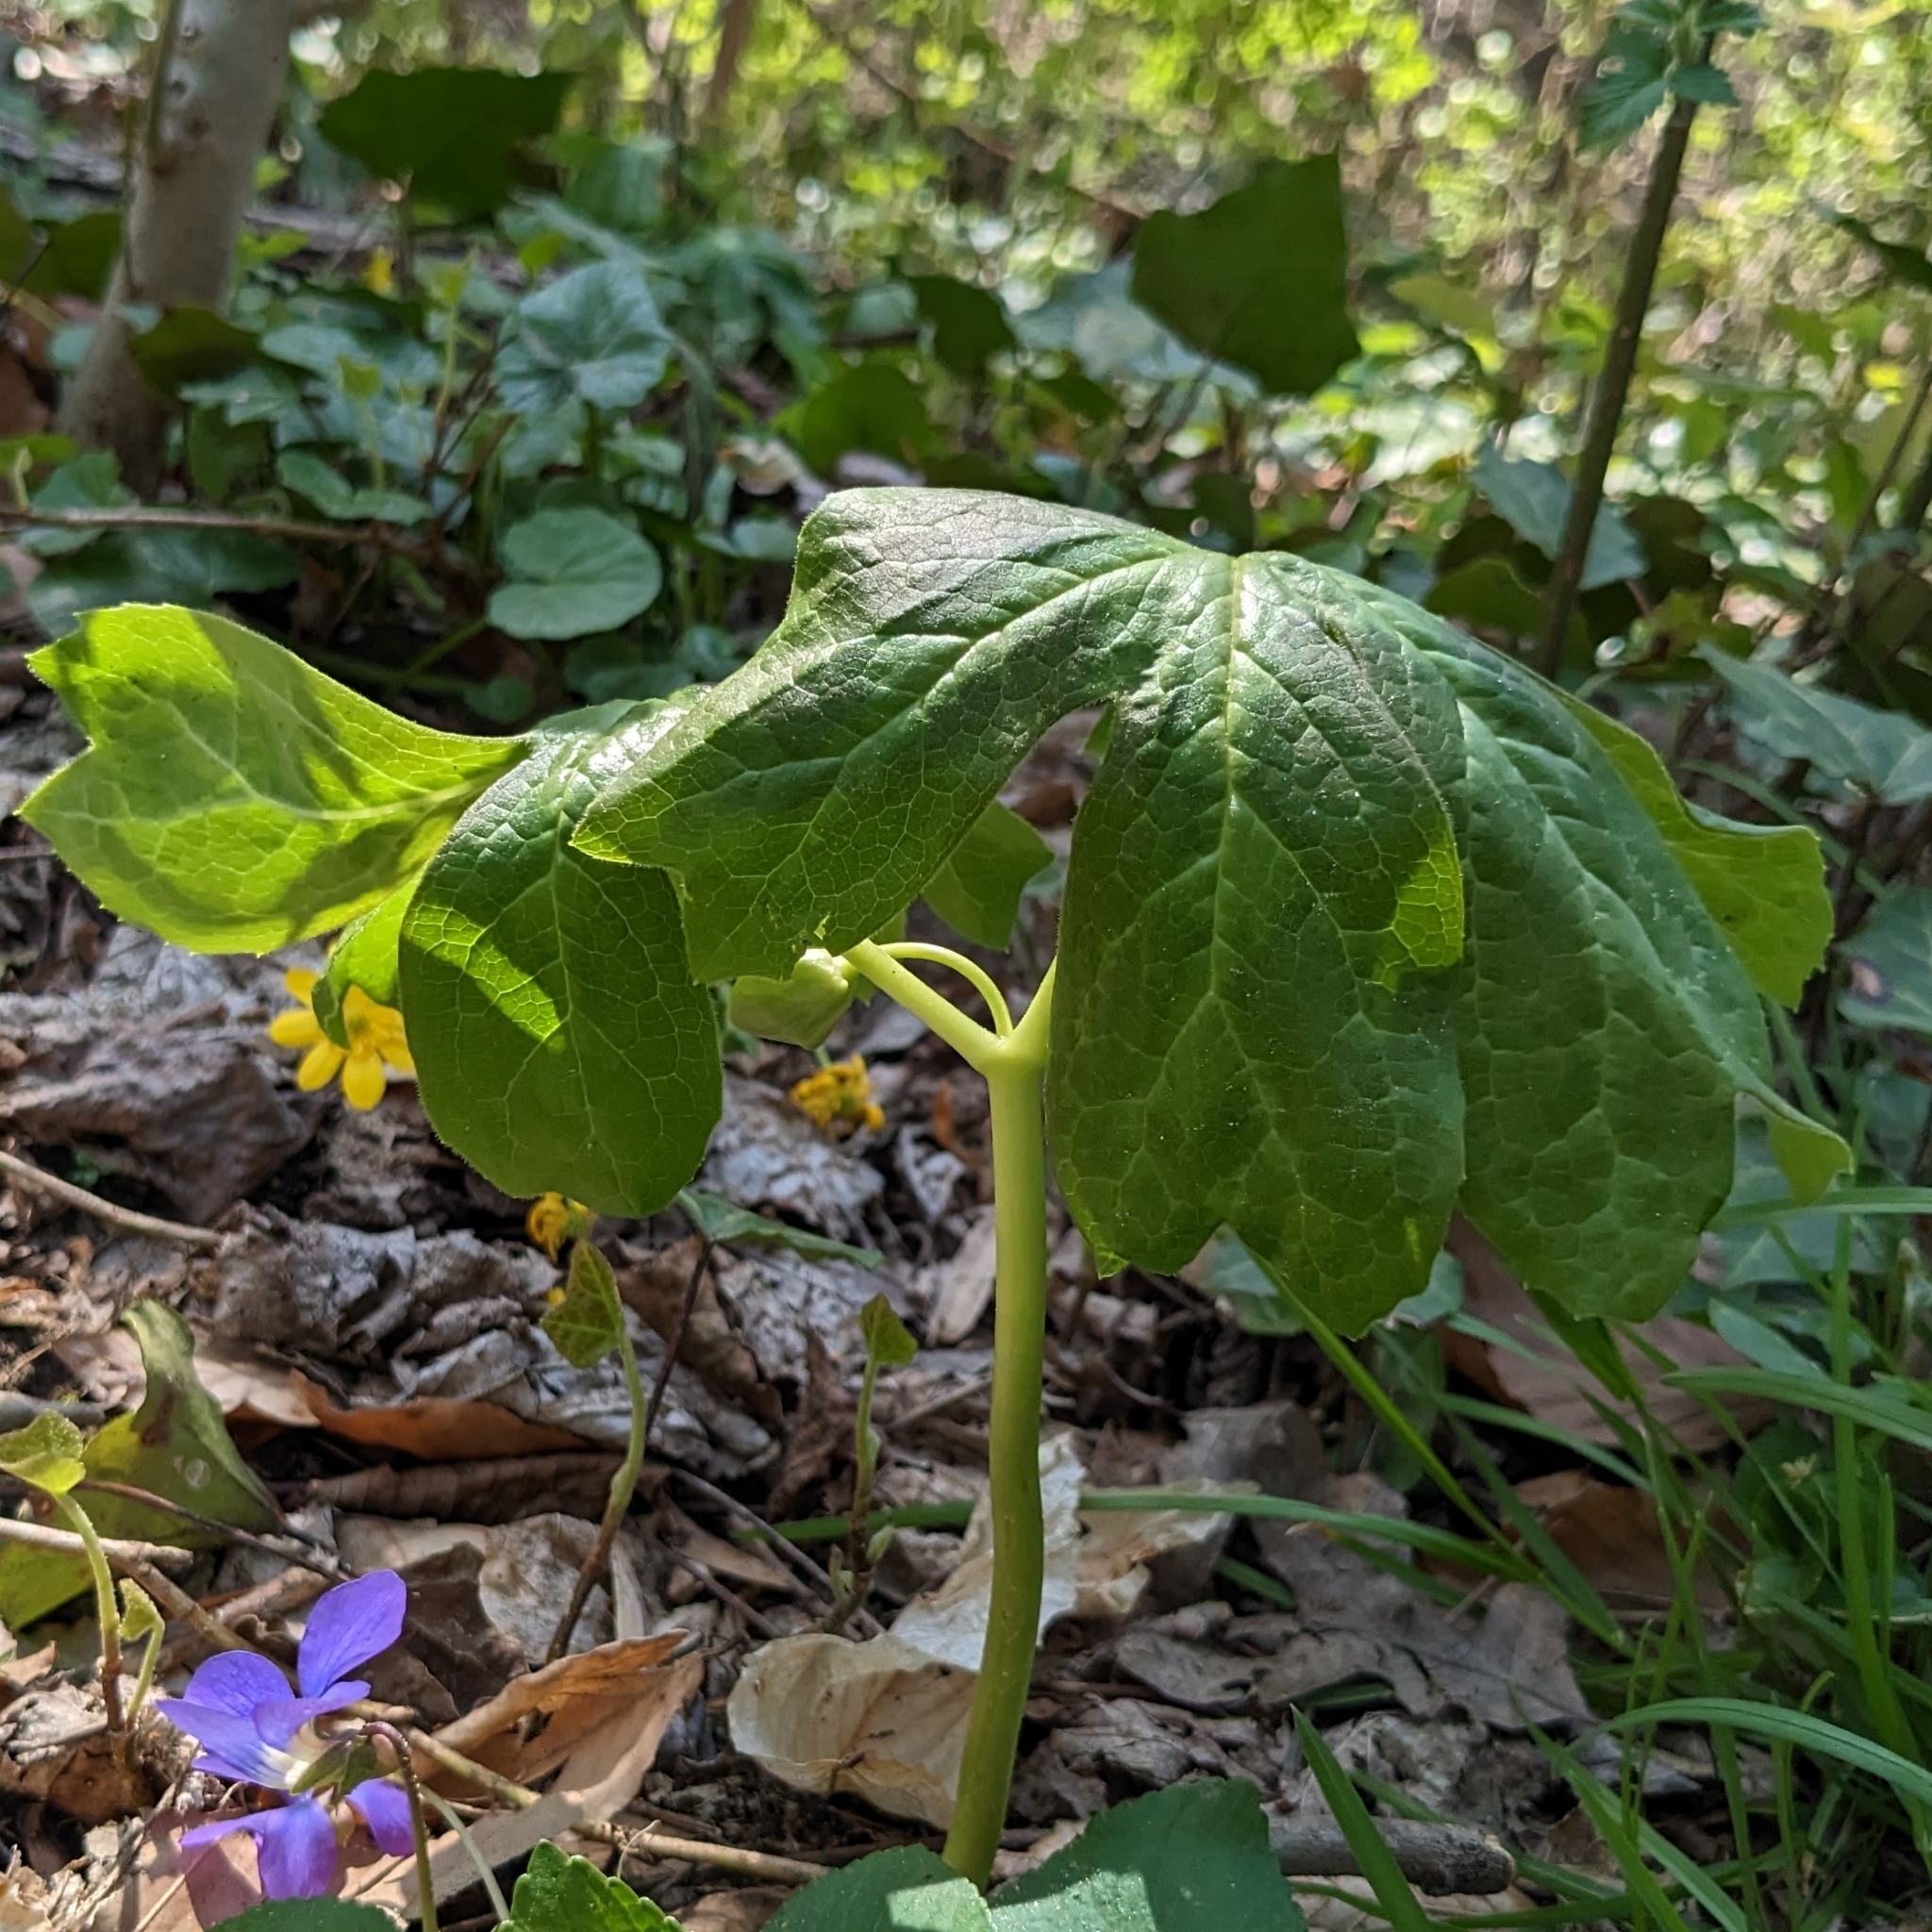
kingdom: Plantae
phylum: Tracheophyta
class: Magnoliopsida
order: Ranunculales
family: Berberidaceae
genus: Podophyllum
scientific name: Podophyllum peltatum
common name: Wild mandrake
